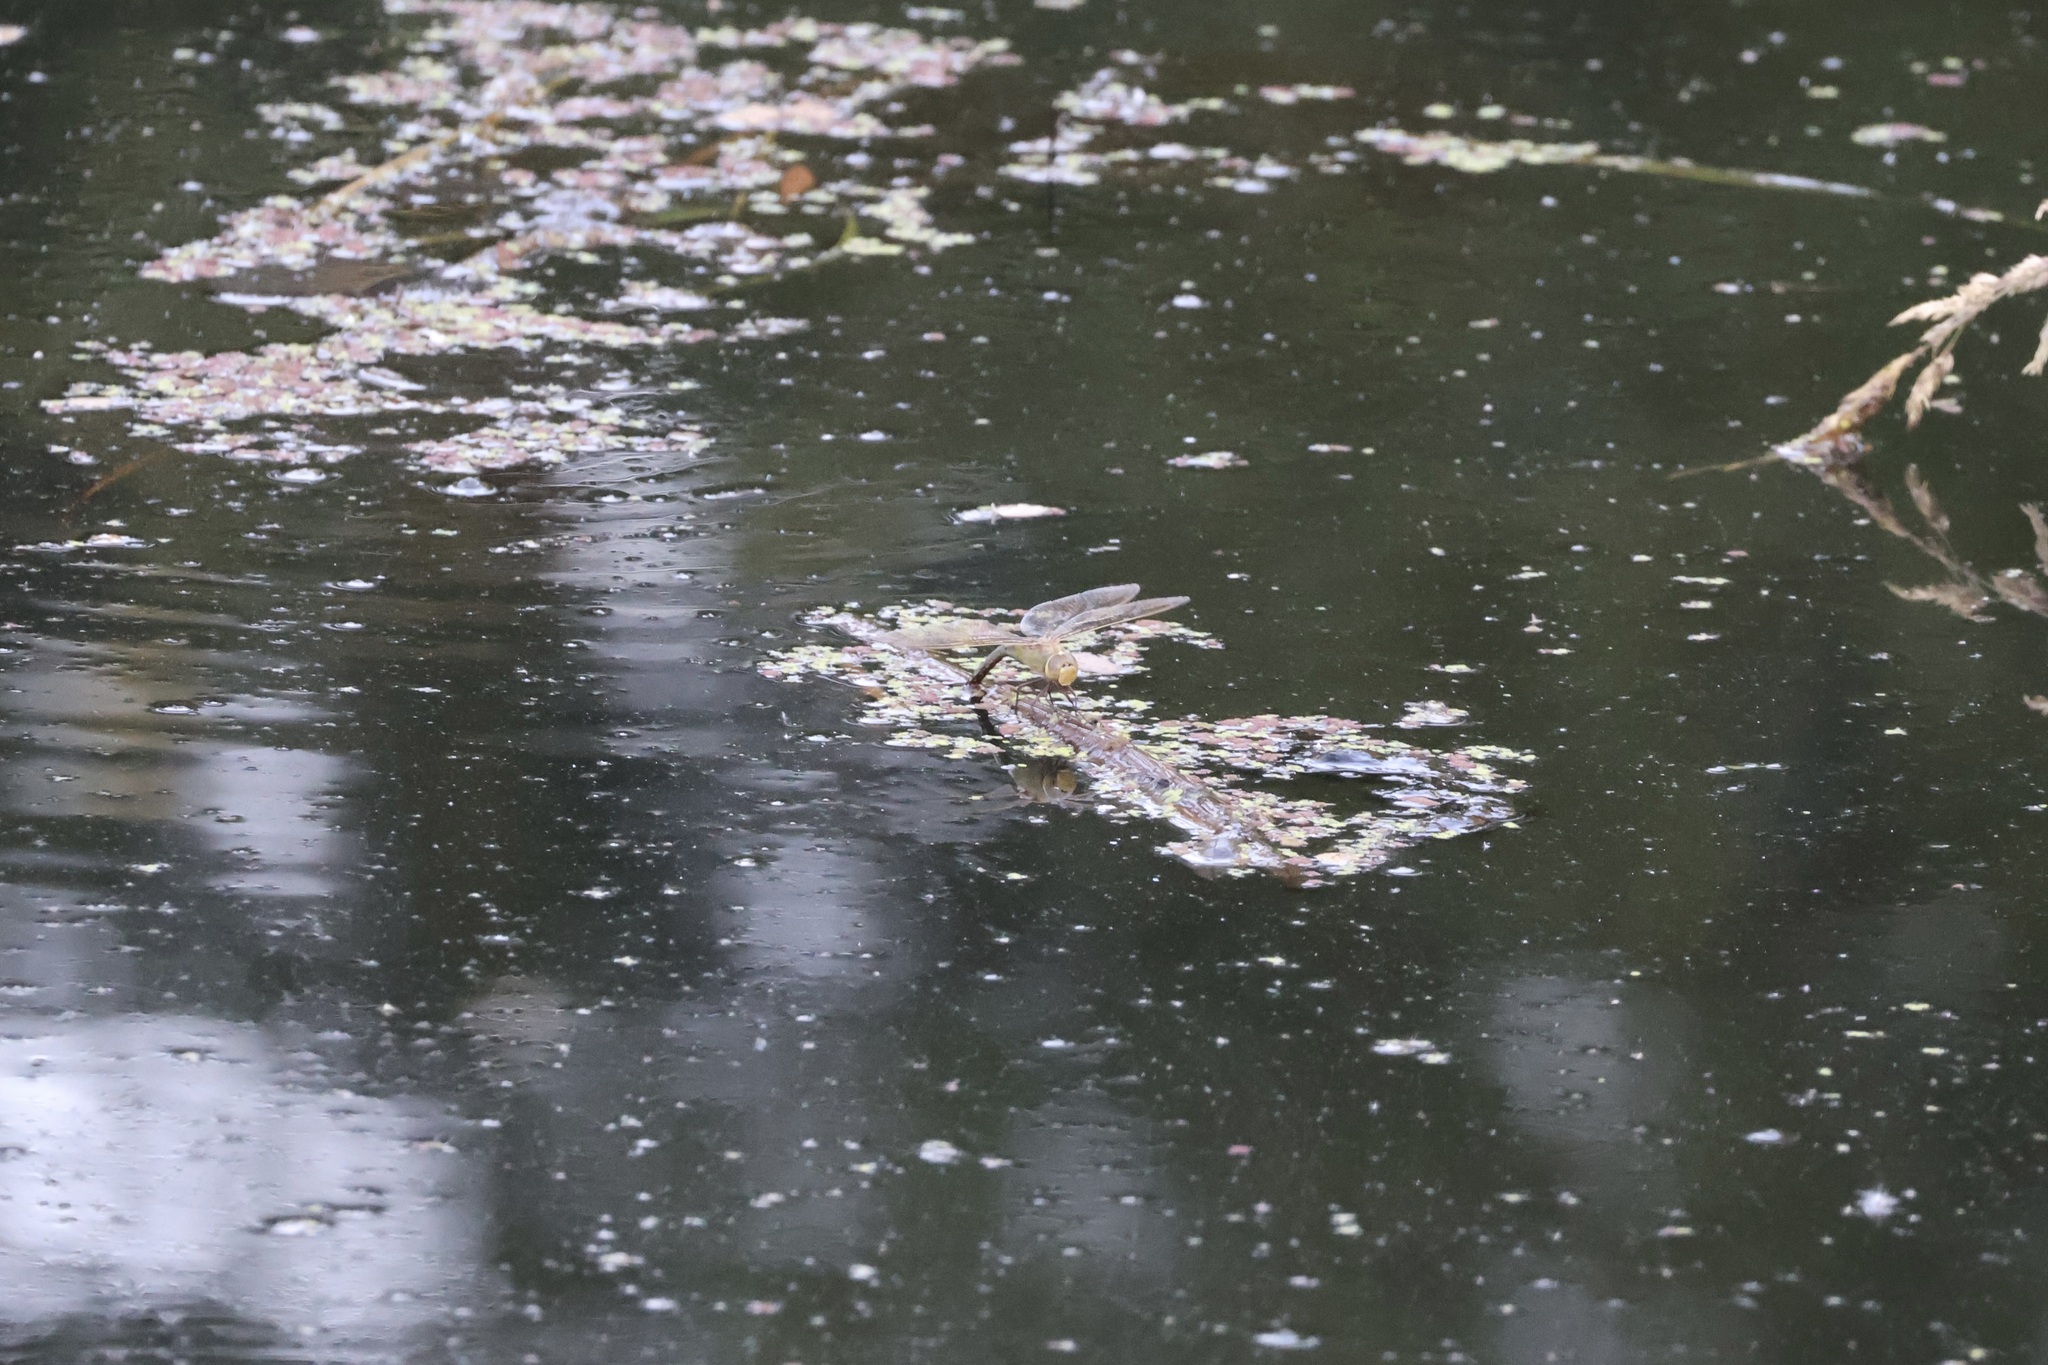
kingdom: Animalia
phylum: Arthropoda
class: Insecta
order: Odonata
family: Aeshnidae
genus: Anax
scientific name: Anax junius
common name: Common green darner
